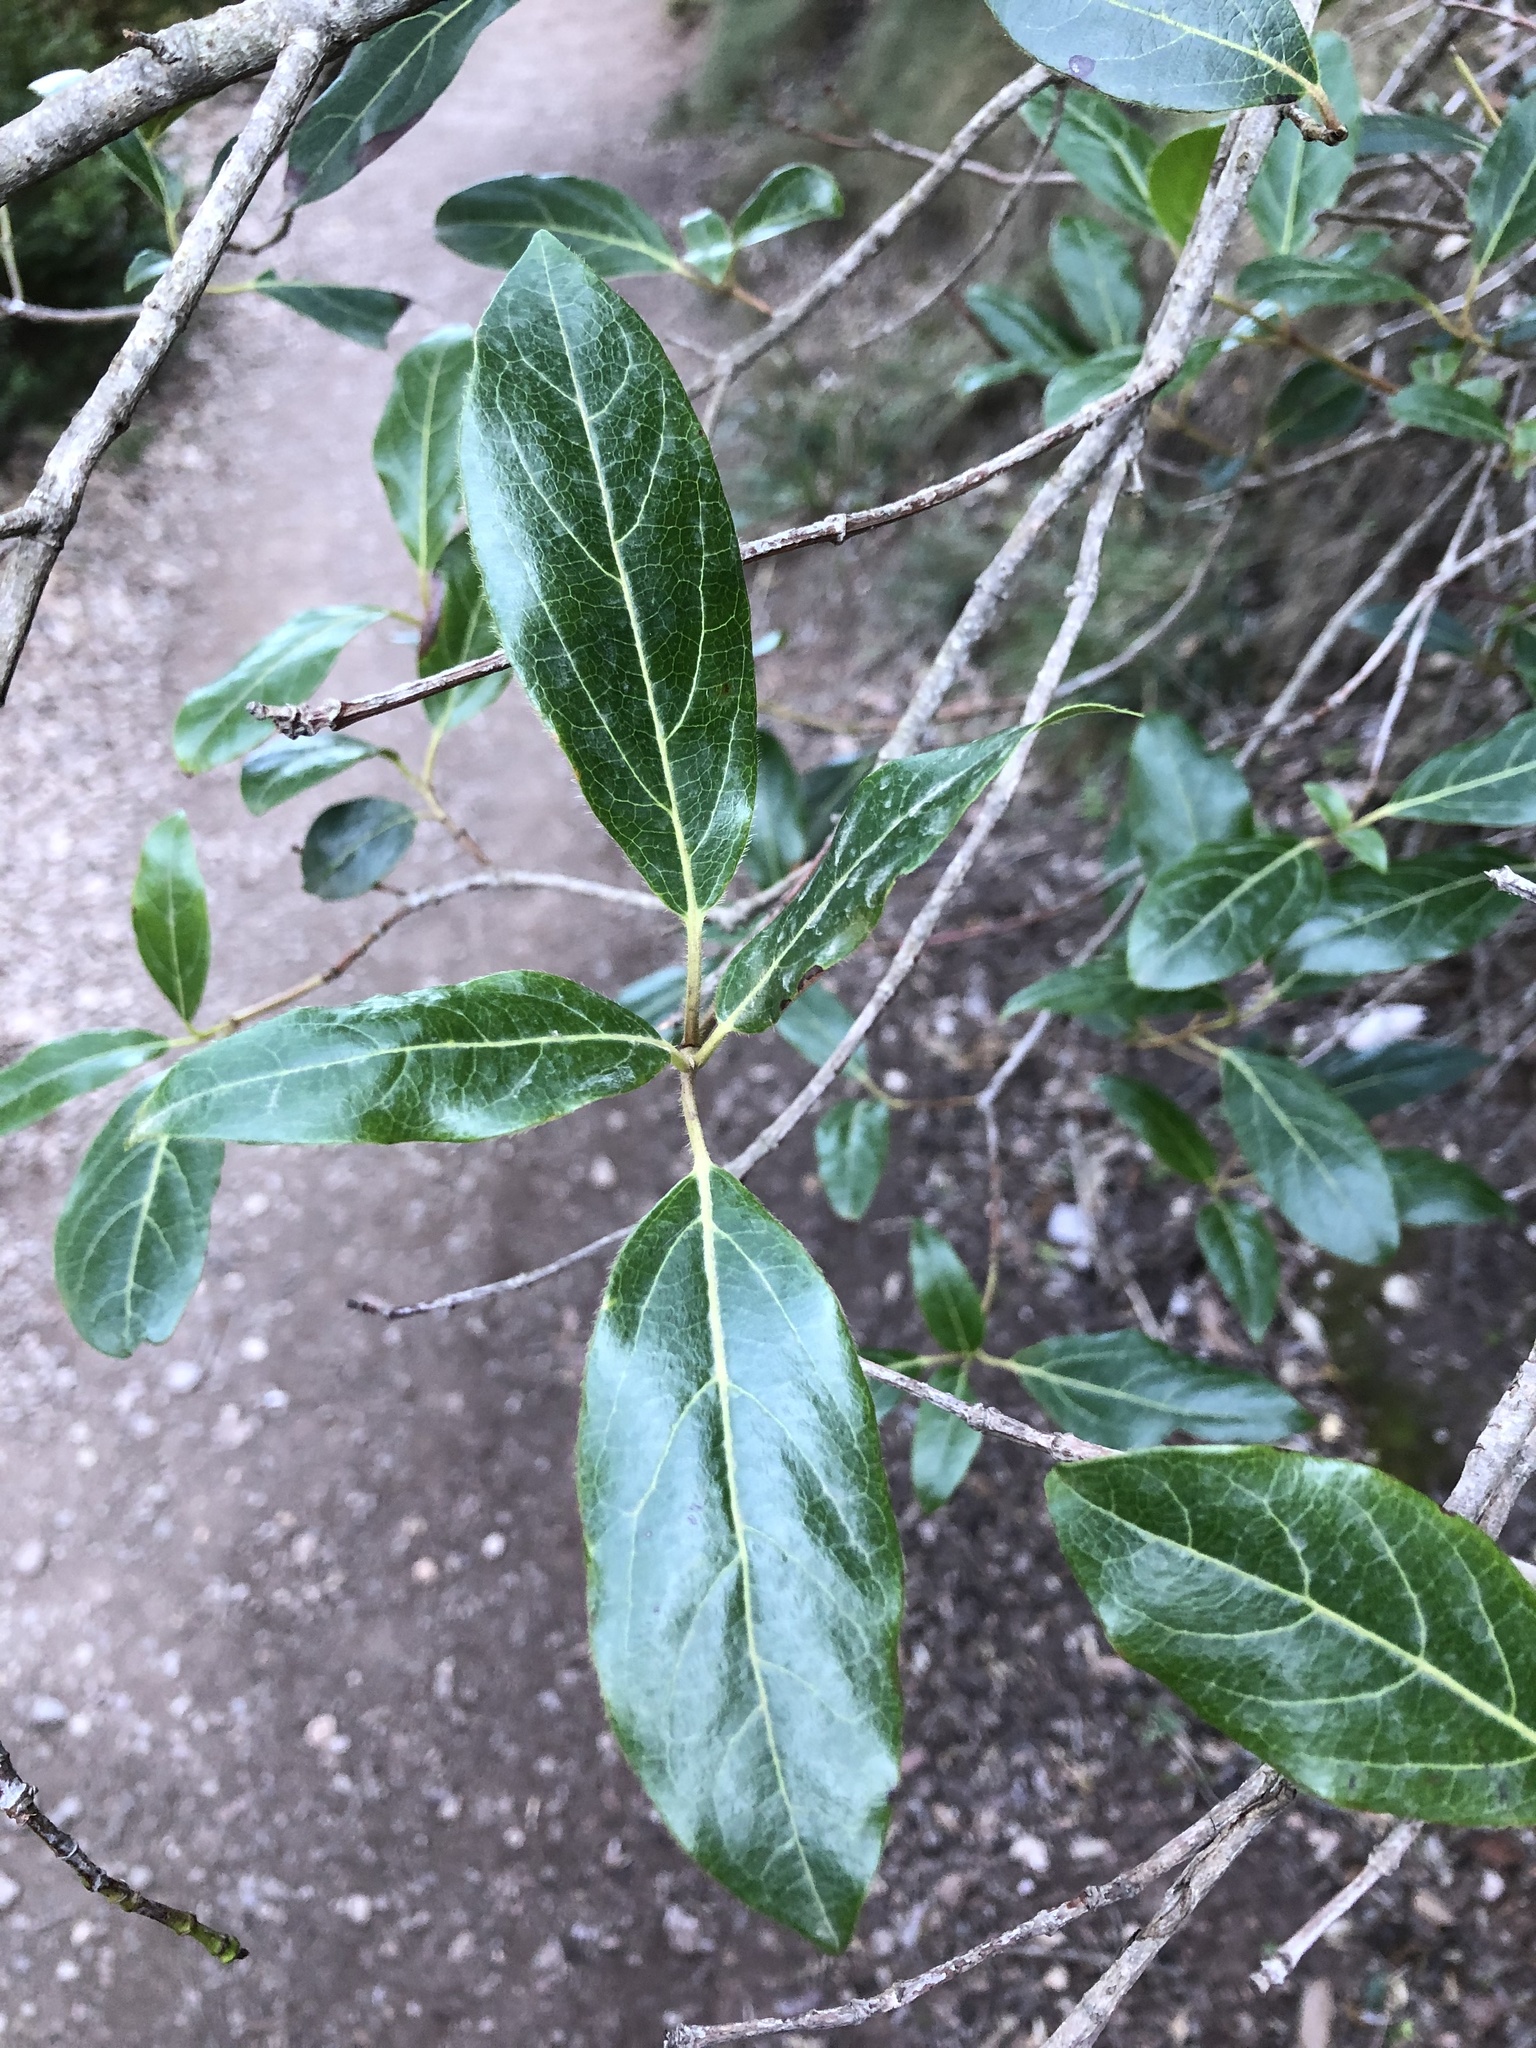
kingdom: Plantae
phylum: Tracheophyta
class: Magnoliopsida
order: Dipsacales
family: Viburnaceae
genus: Viburnum
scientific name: Viburnum tinus
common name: Laurustinus
